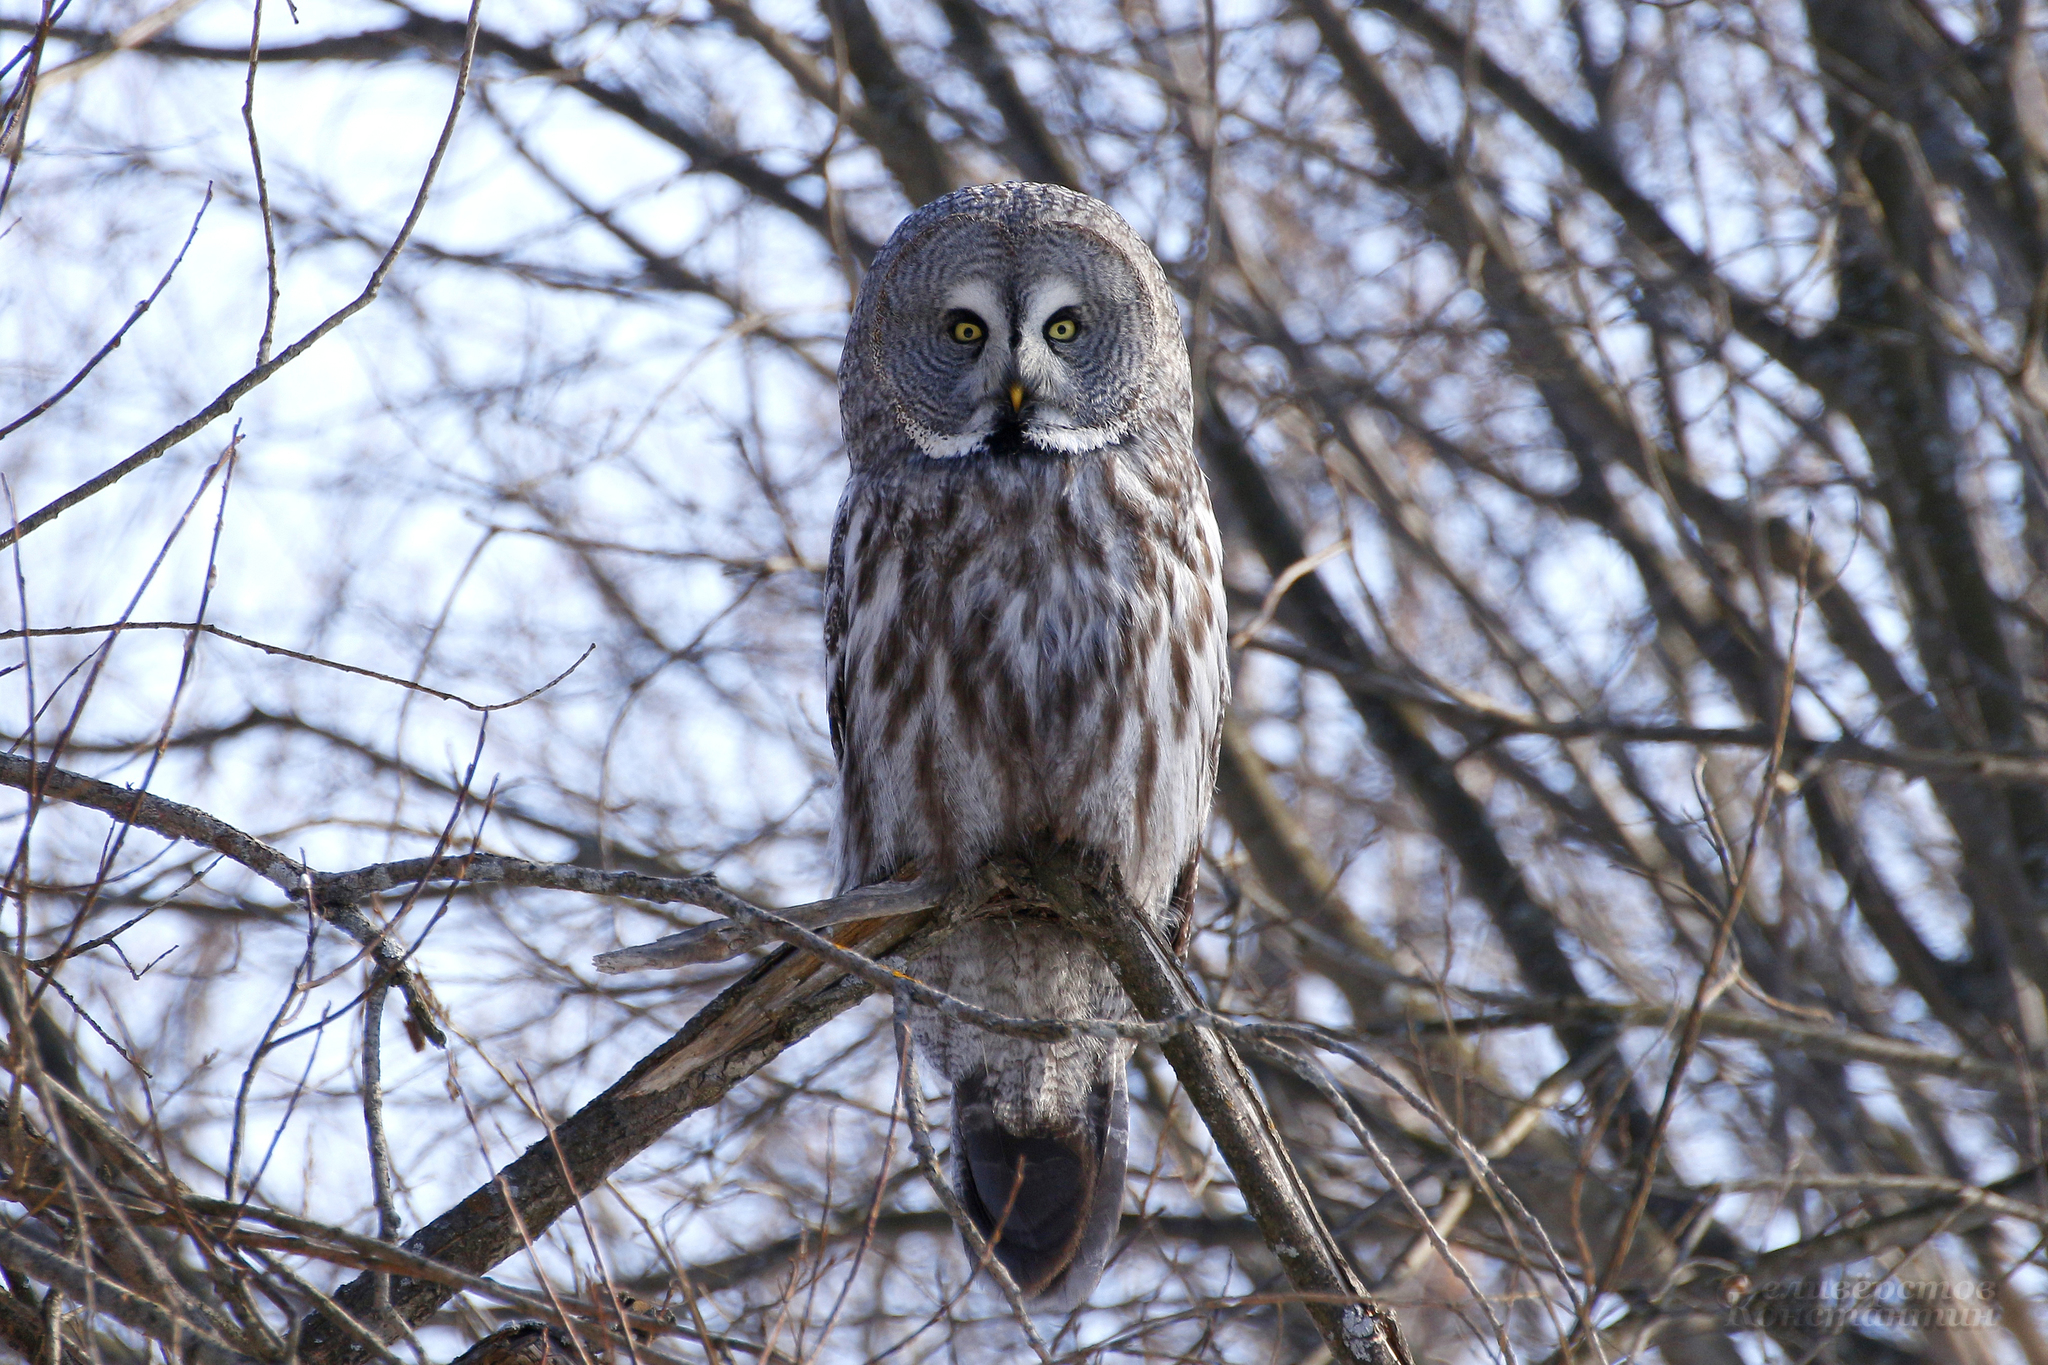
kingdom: Animalia
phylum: Chordata
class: Aves
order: Strigiformes
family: Strigidae
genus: Strix
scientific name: Strix nebulosa
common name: Great grey owl
